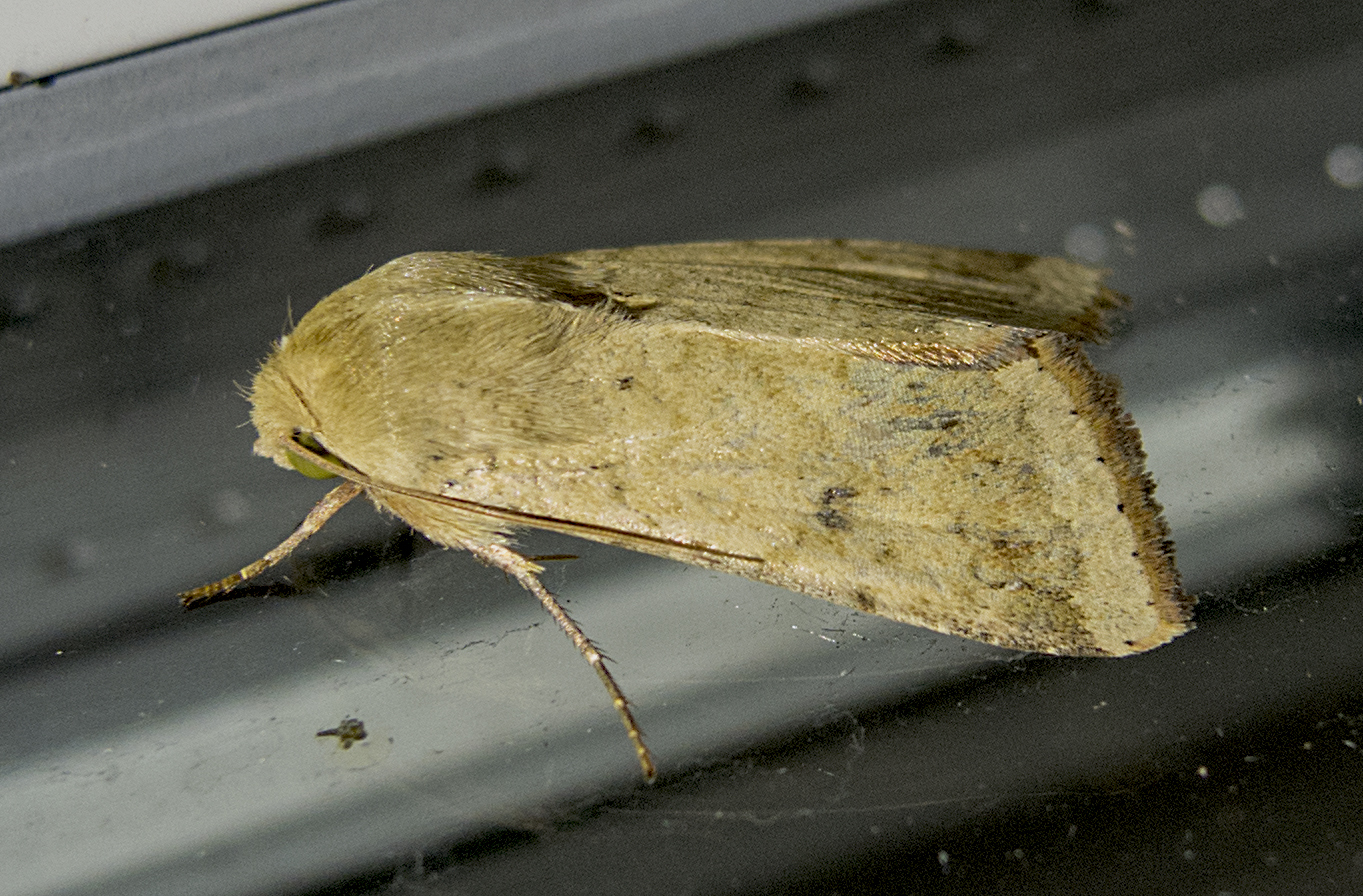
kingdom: Animalia
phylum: Arthropoda
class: Insecta
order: Lepidoptera
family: Noctuidae
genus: Helicoverpa
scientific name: Helicoverpa armigera
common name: Cotton bollworm
